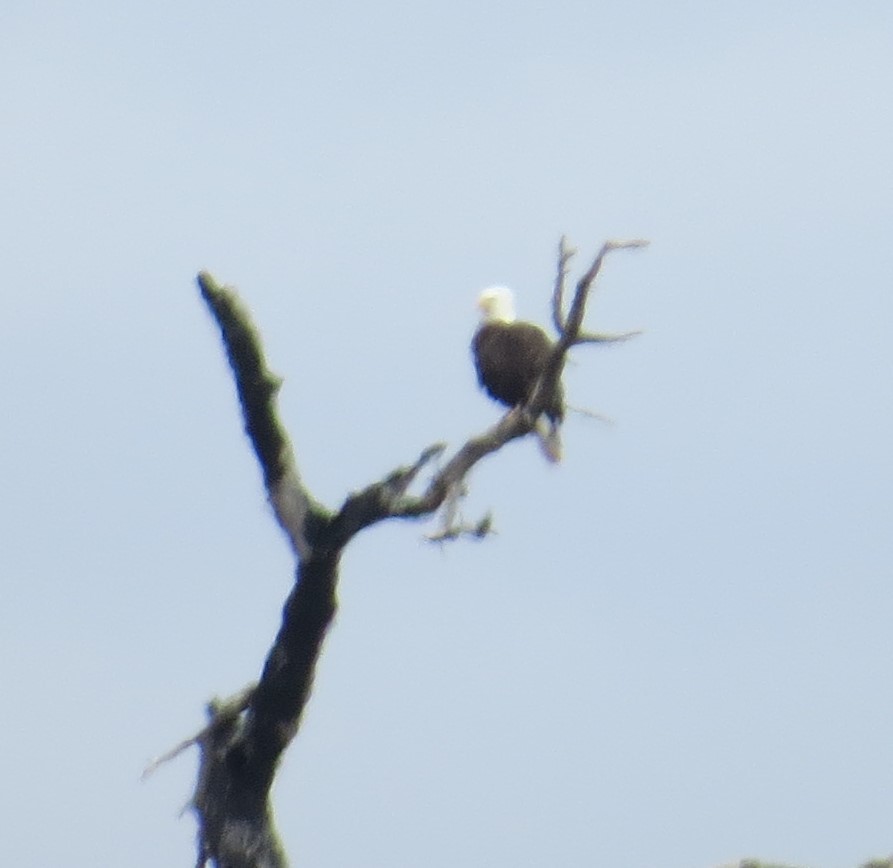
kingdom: Animalia
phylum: Chordata
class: Aves
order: Accipitriformes
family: Accipitridae
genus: Haliaeetus
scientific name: Haliaeetus leucocephalus
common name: Bald eagle
